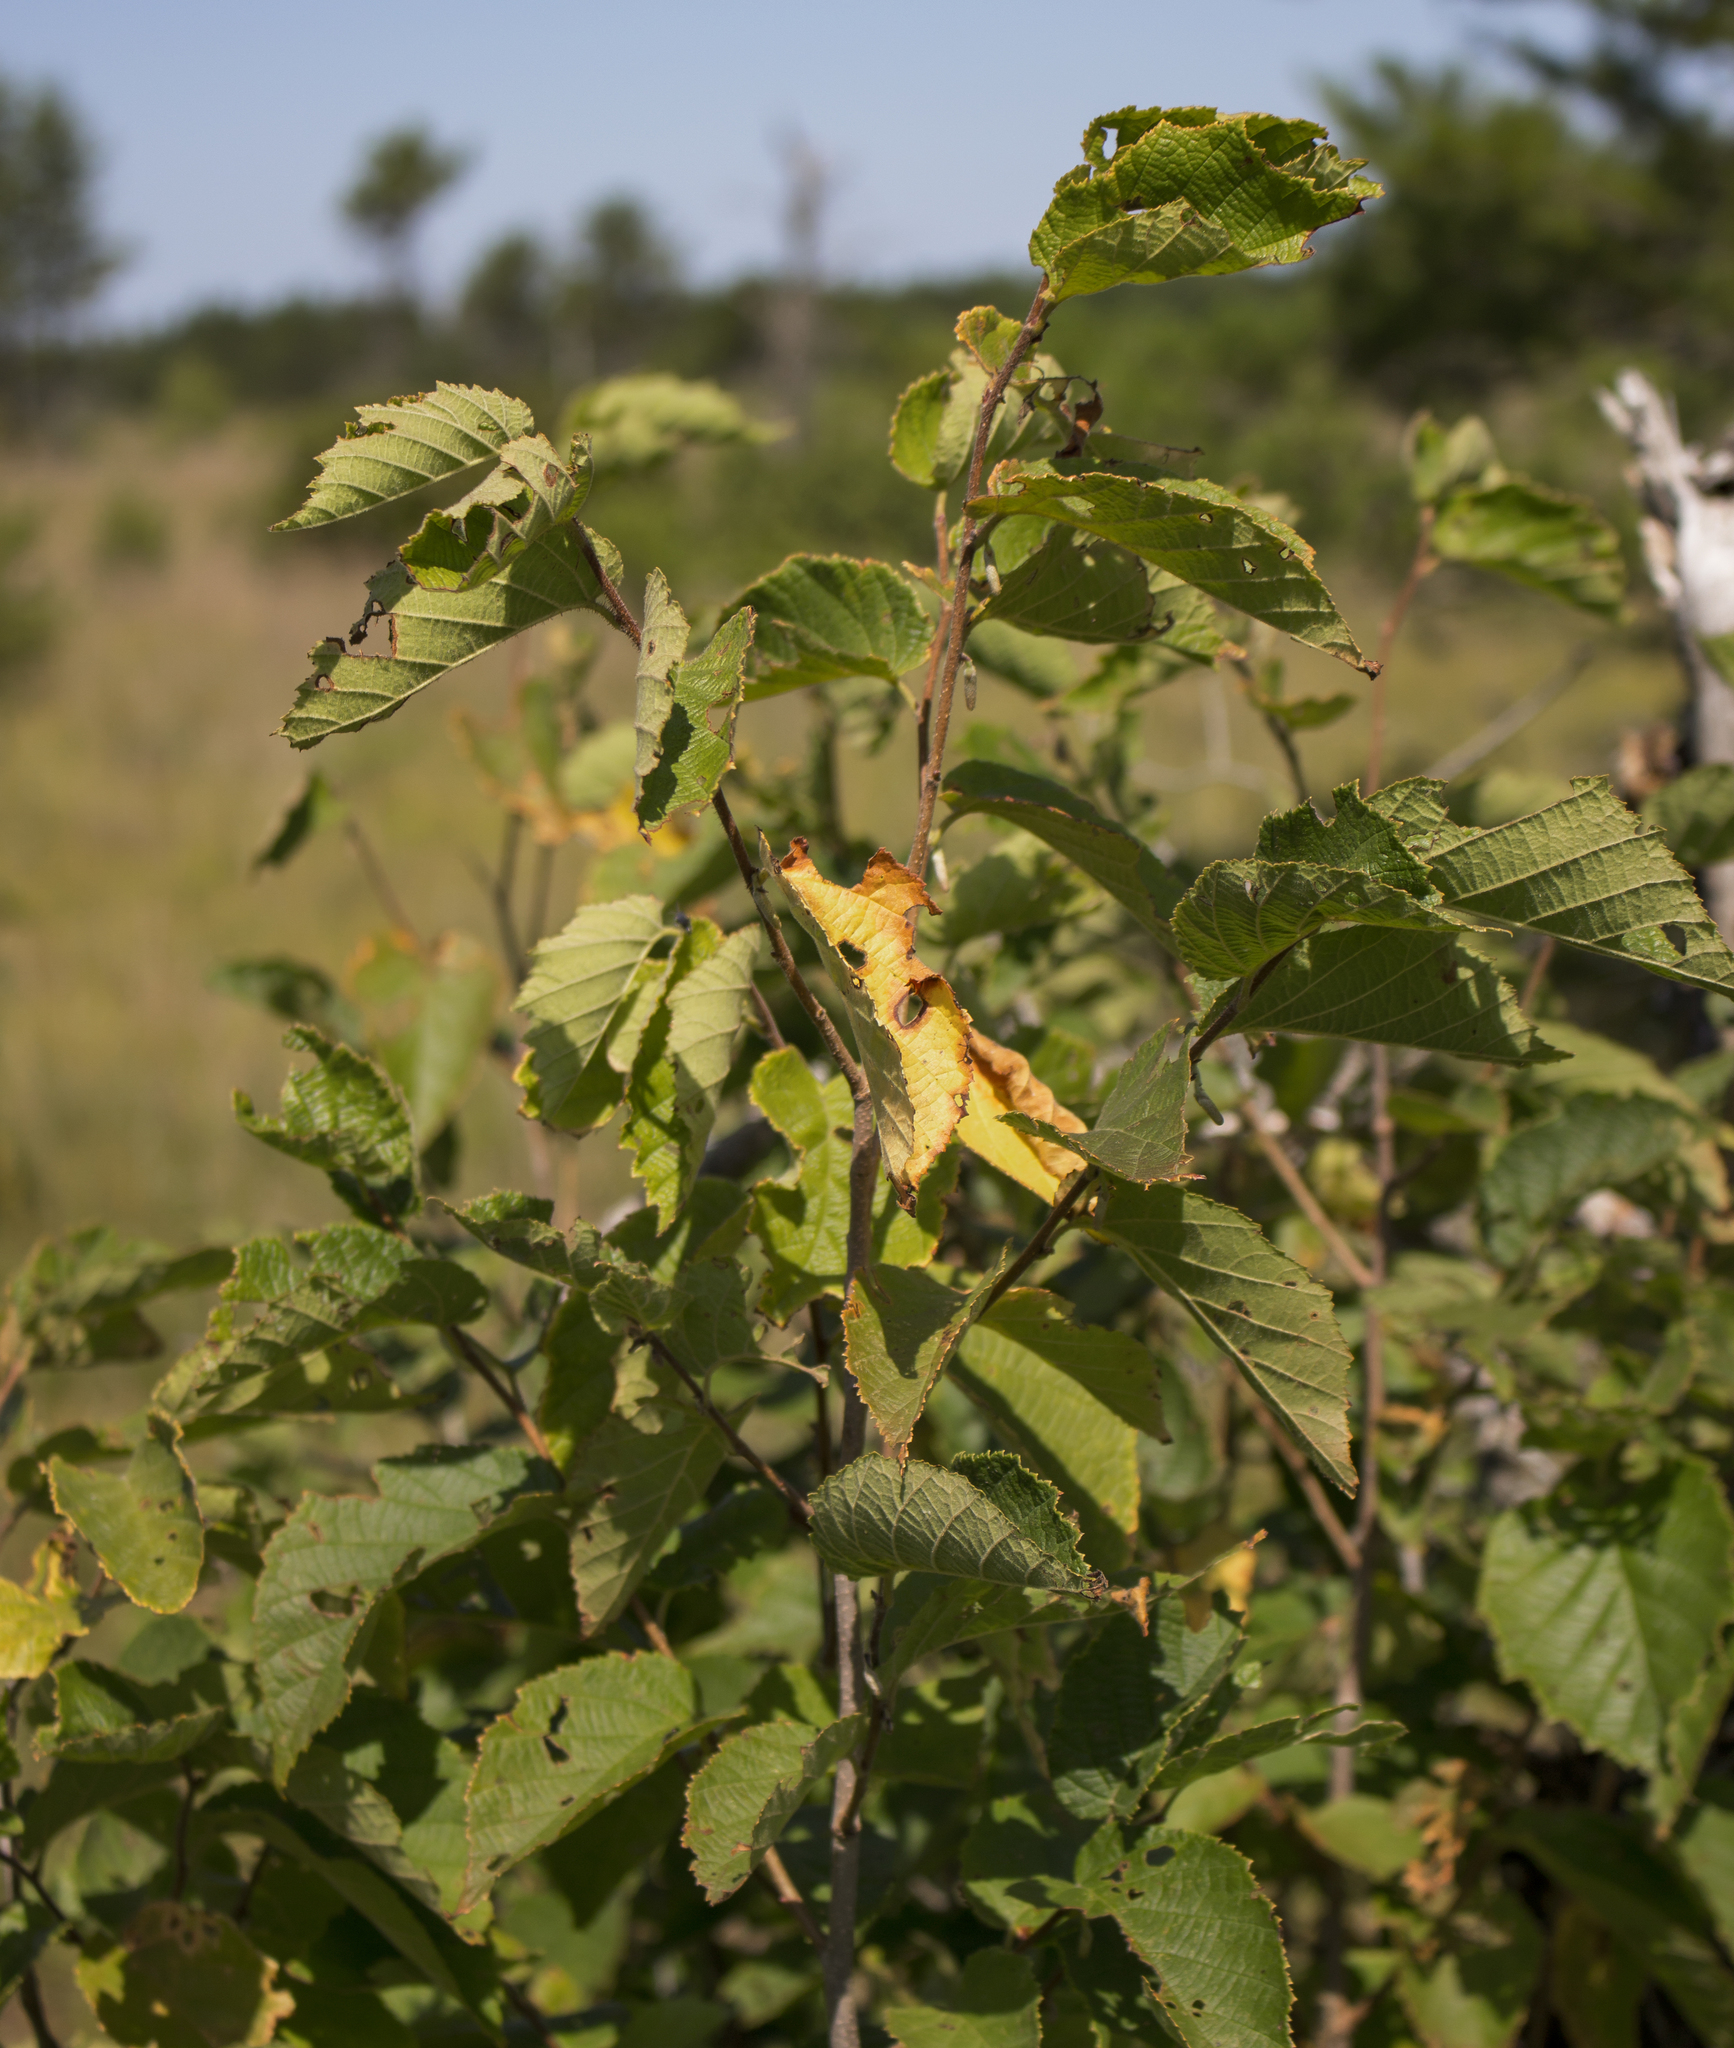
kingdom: Plantae
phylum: Tracheophyta
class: Magnoliopsida
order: Fagales
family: Betulaceae
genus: Corylus
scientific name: Corylus americana
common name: American hazel
